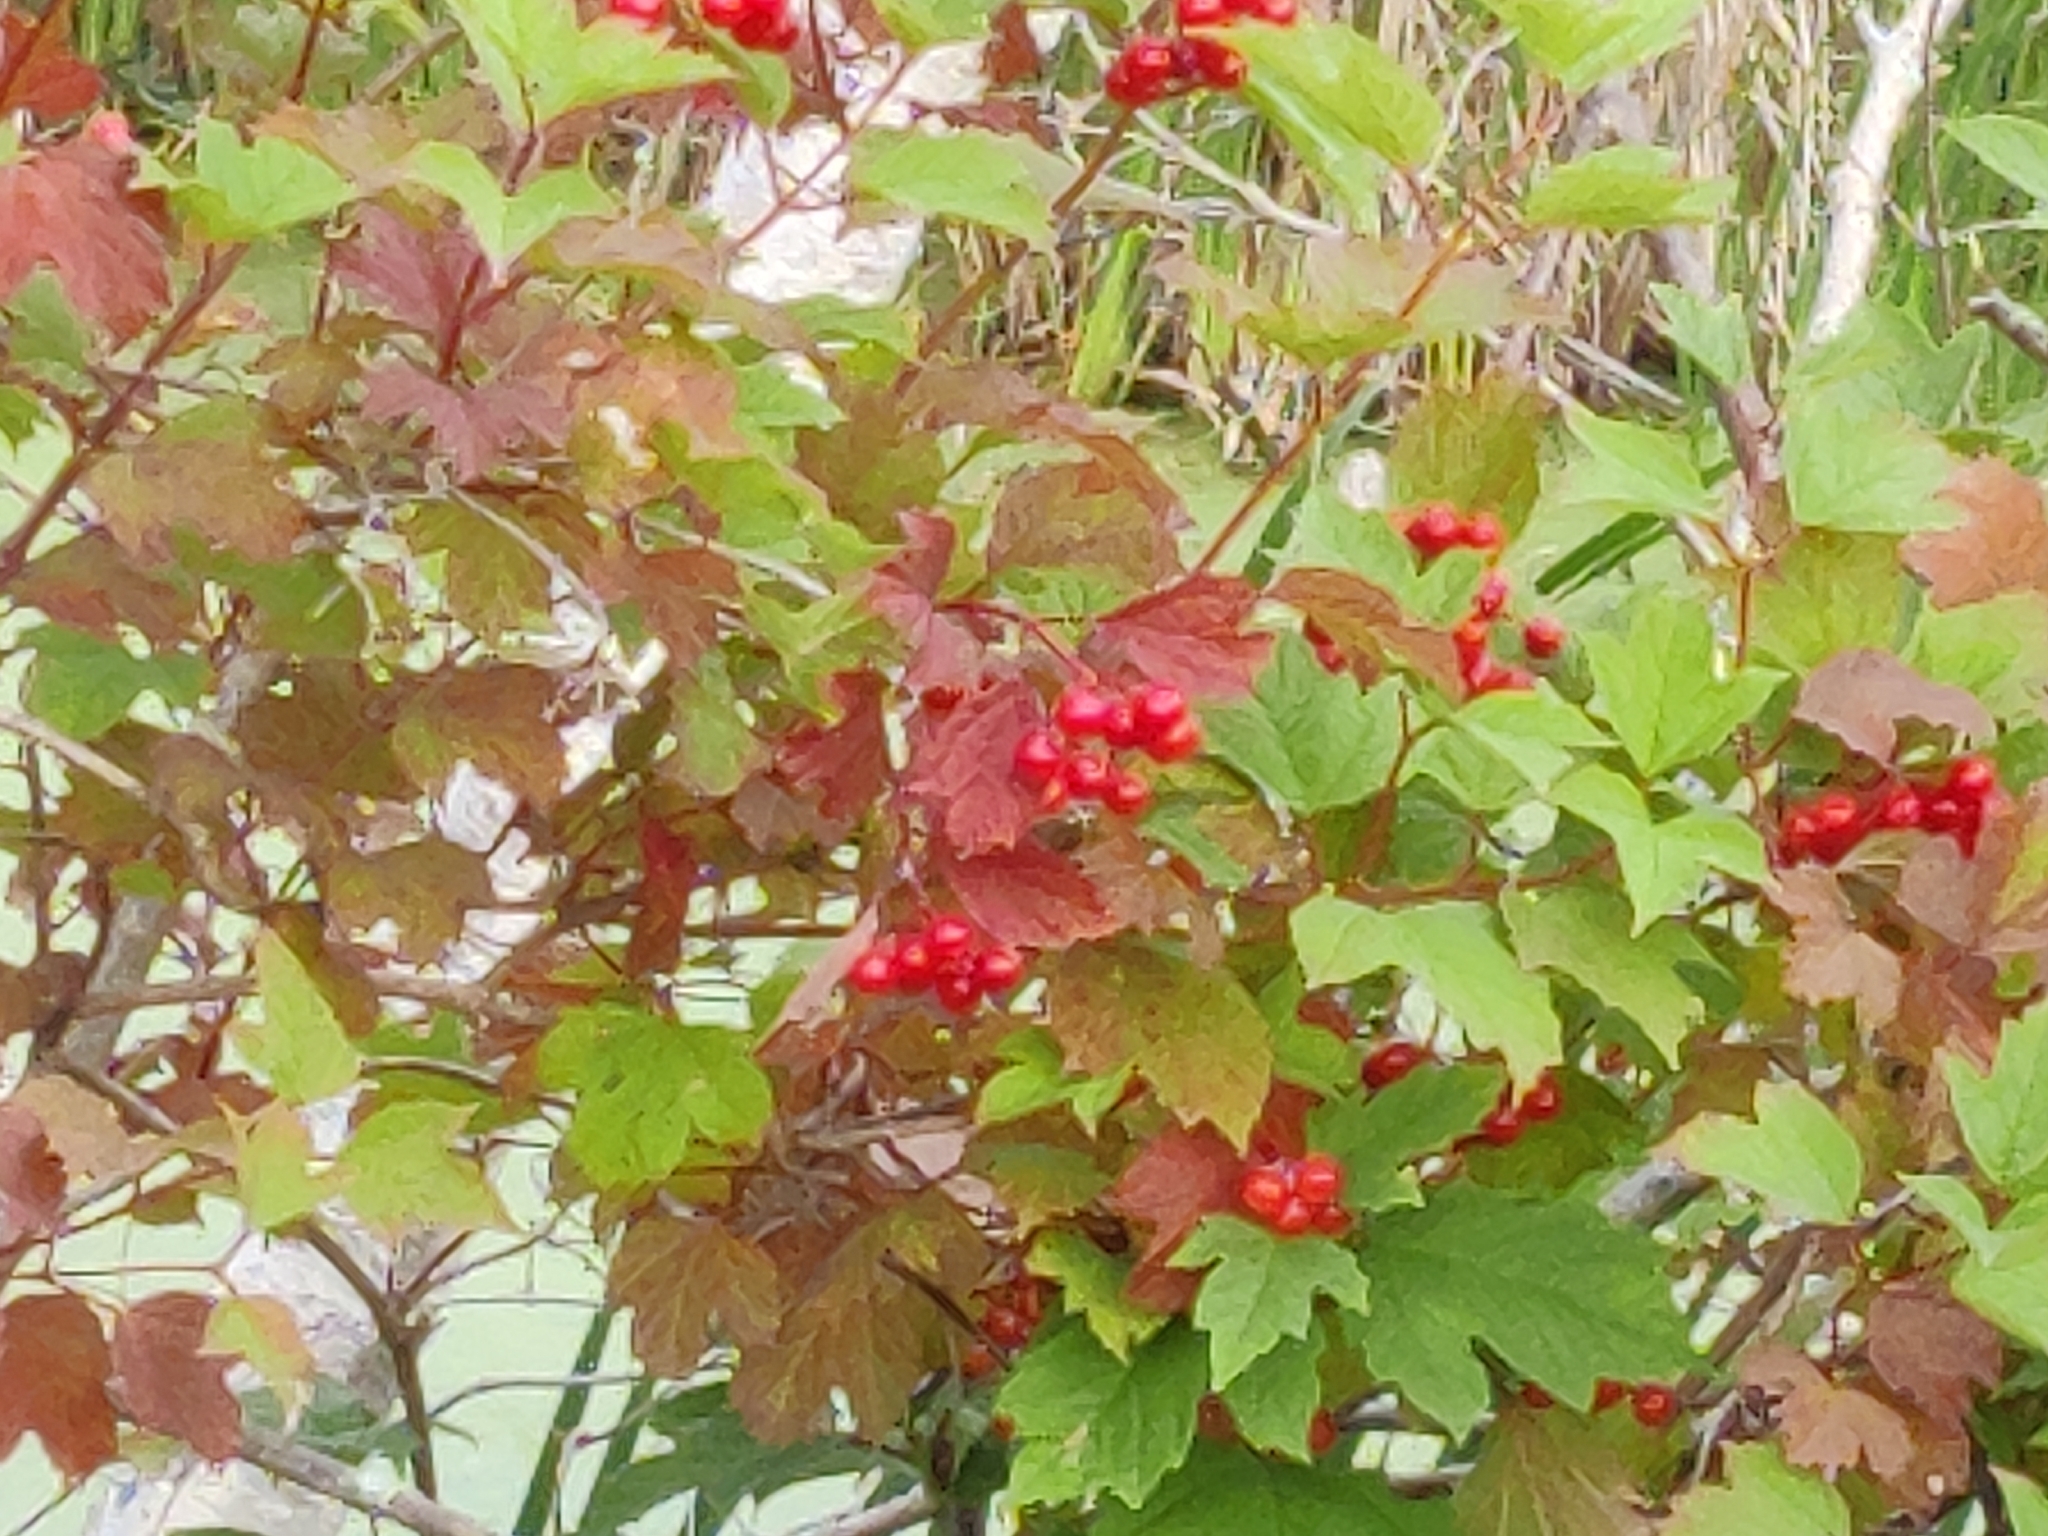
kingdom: Plantae
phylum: Tracheophyta
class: Magnoliopsida
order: Dipsacales
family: Viburnaceae
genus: Viburnum
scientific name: Viburnum opulus
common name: Guelder-rose
